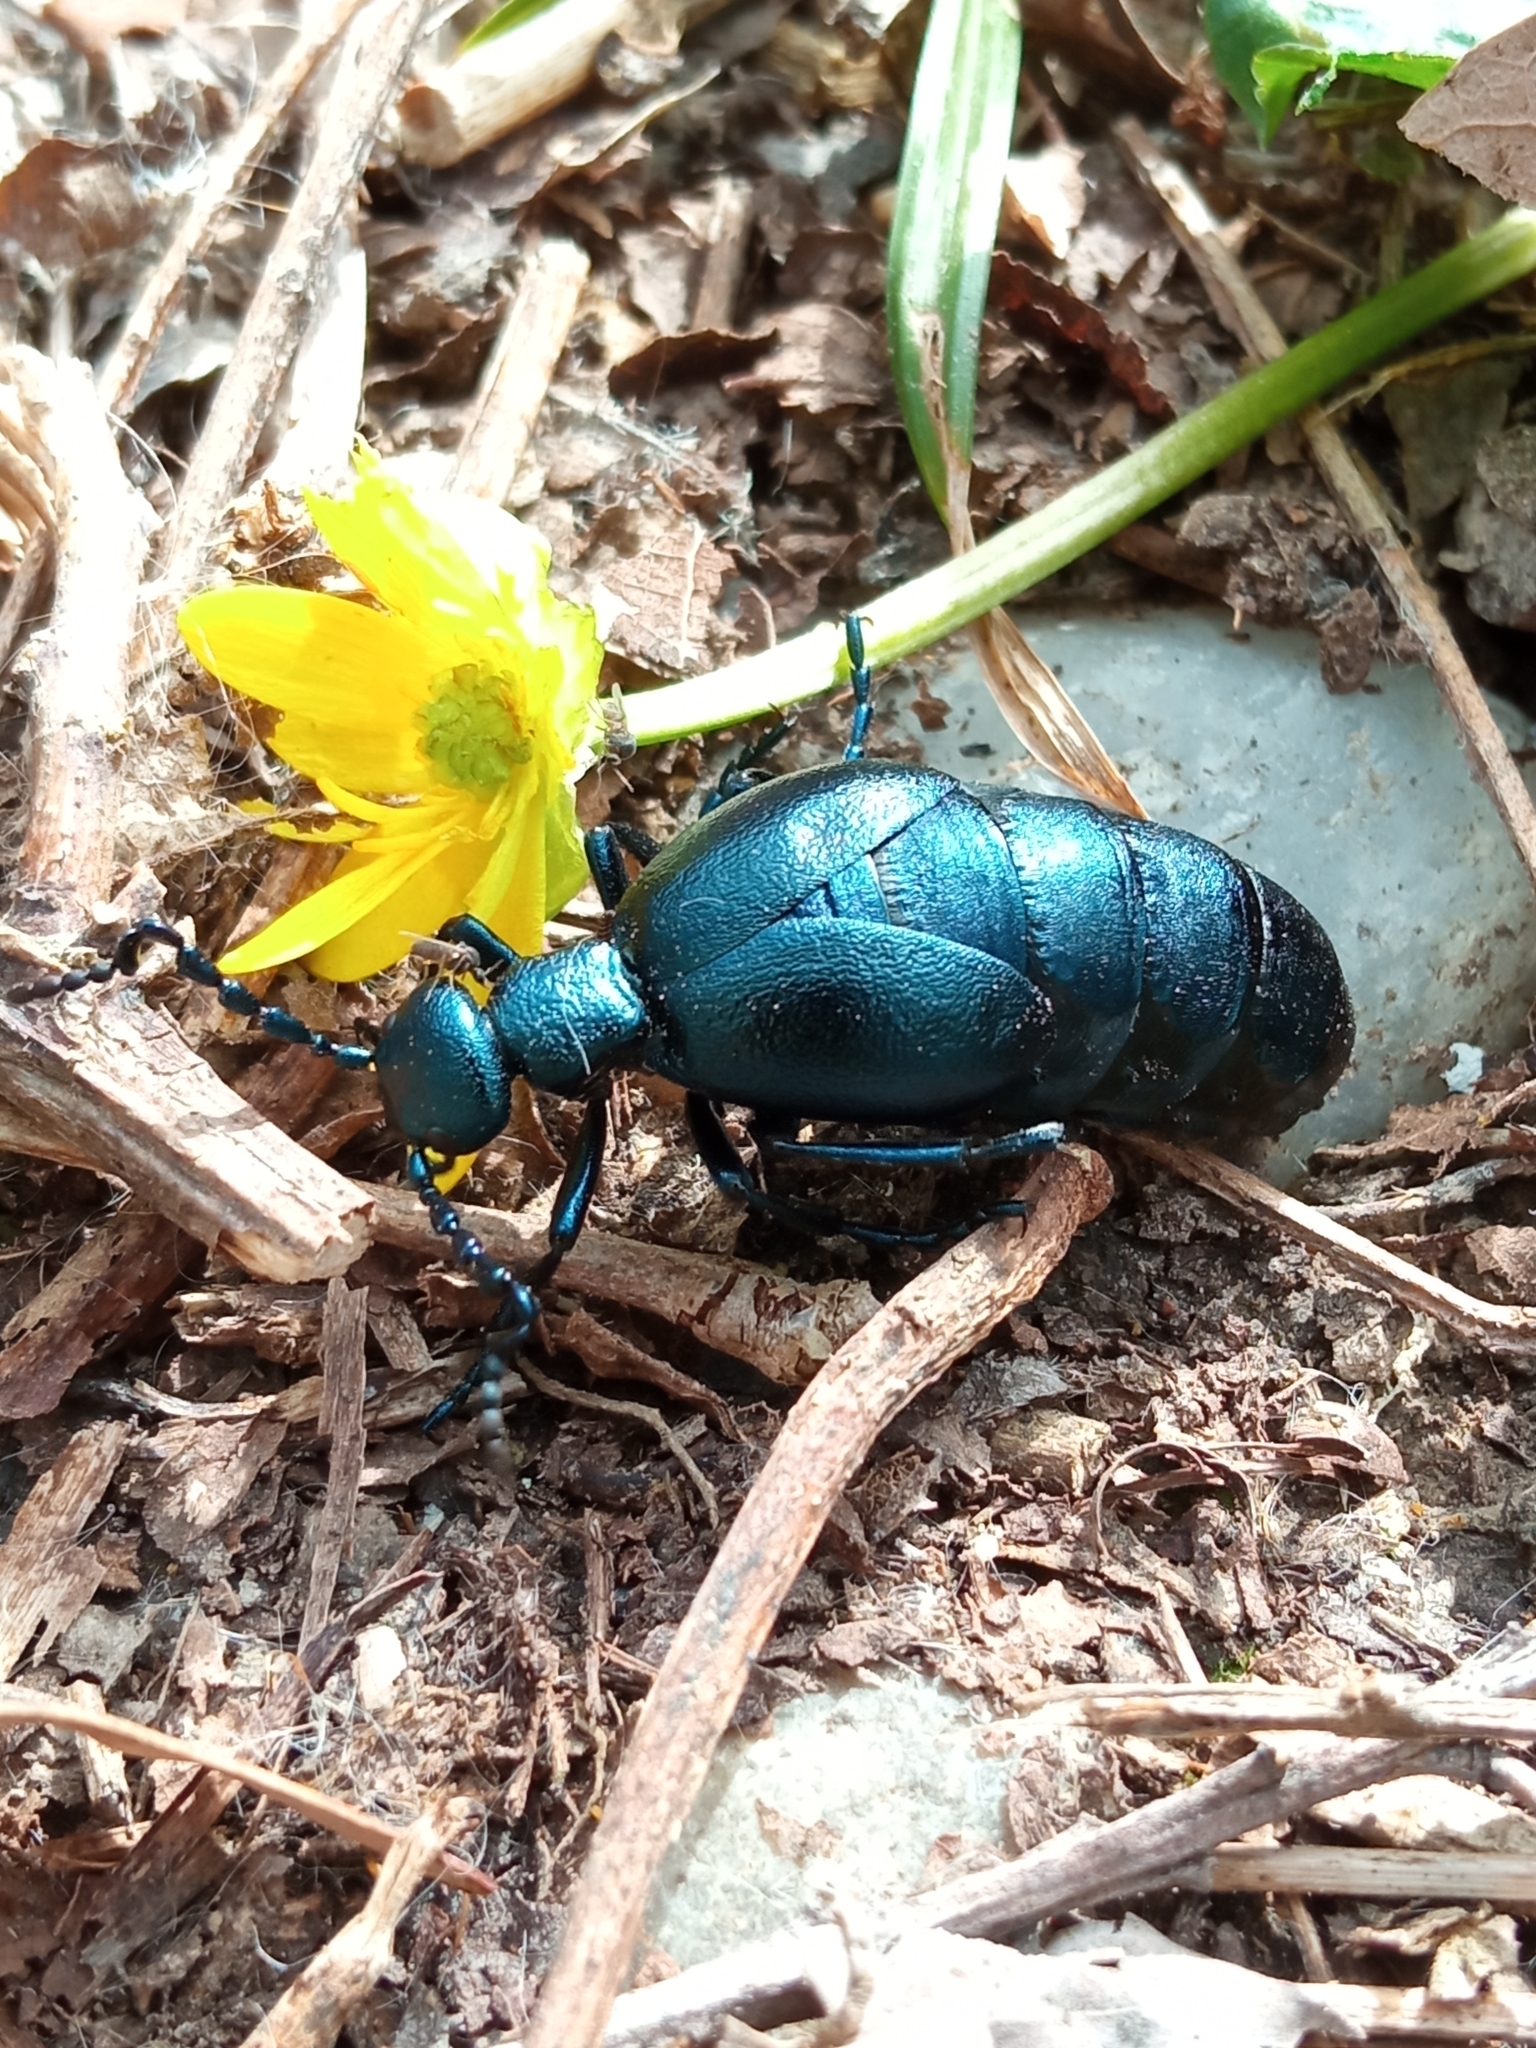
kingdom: Animalia
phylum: Arthropoda
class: Insecta
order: Coleoptera
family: Meloidae
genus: Meloe
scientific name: Meloe violaceus
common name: Violet oil-beetle
